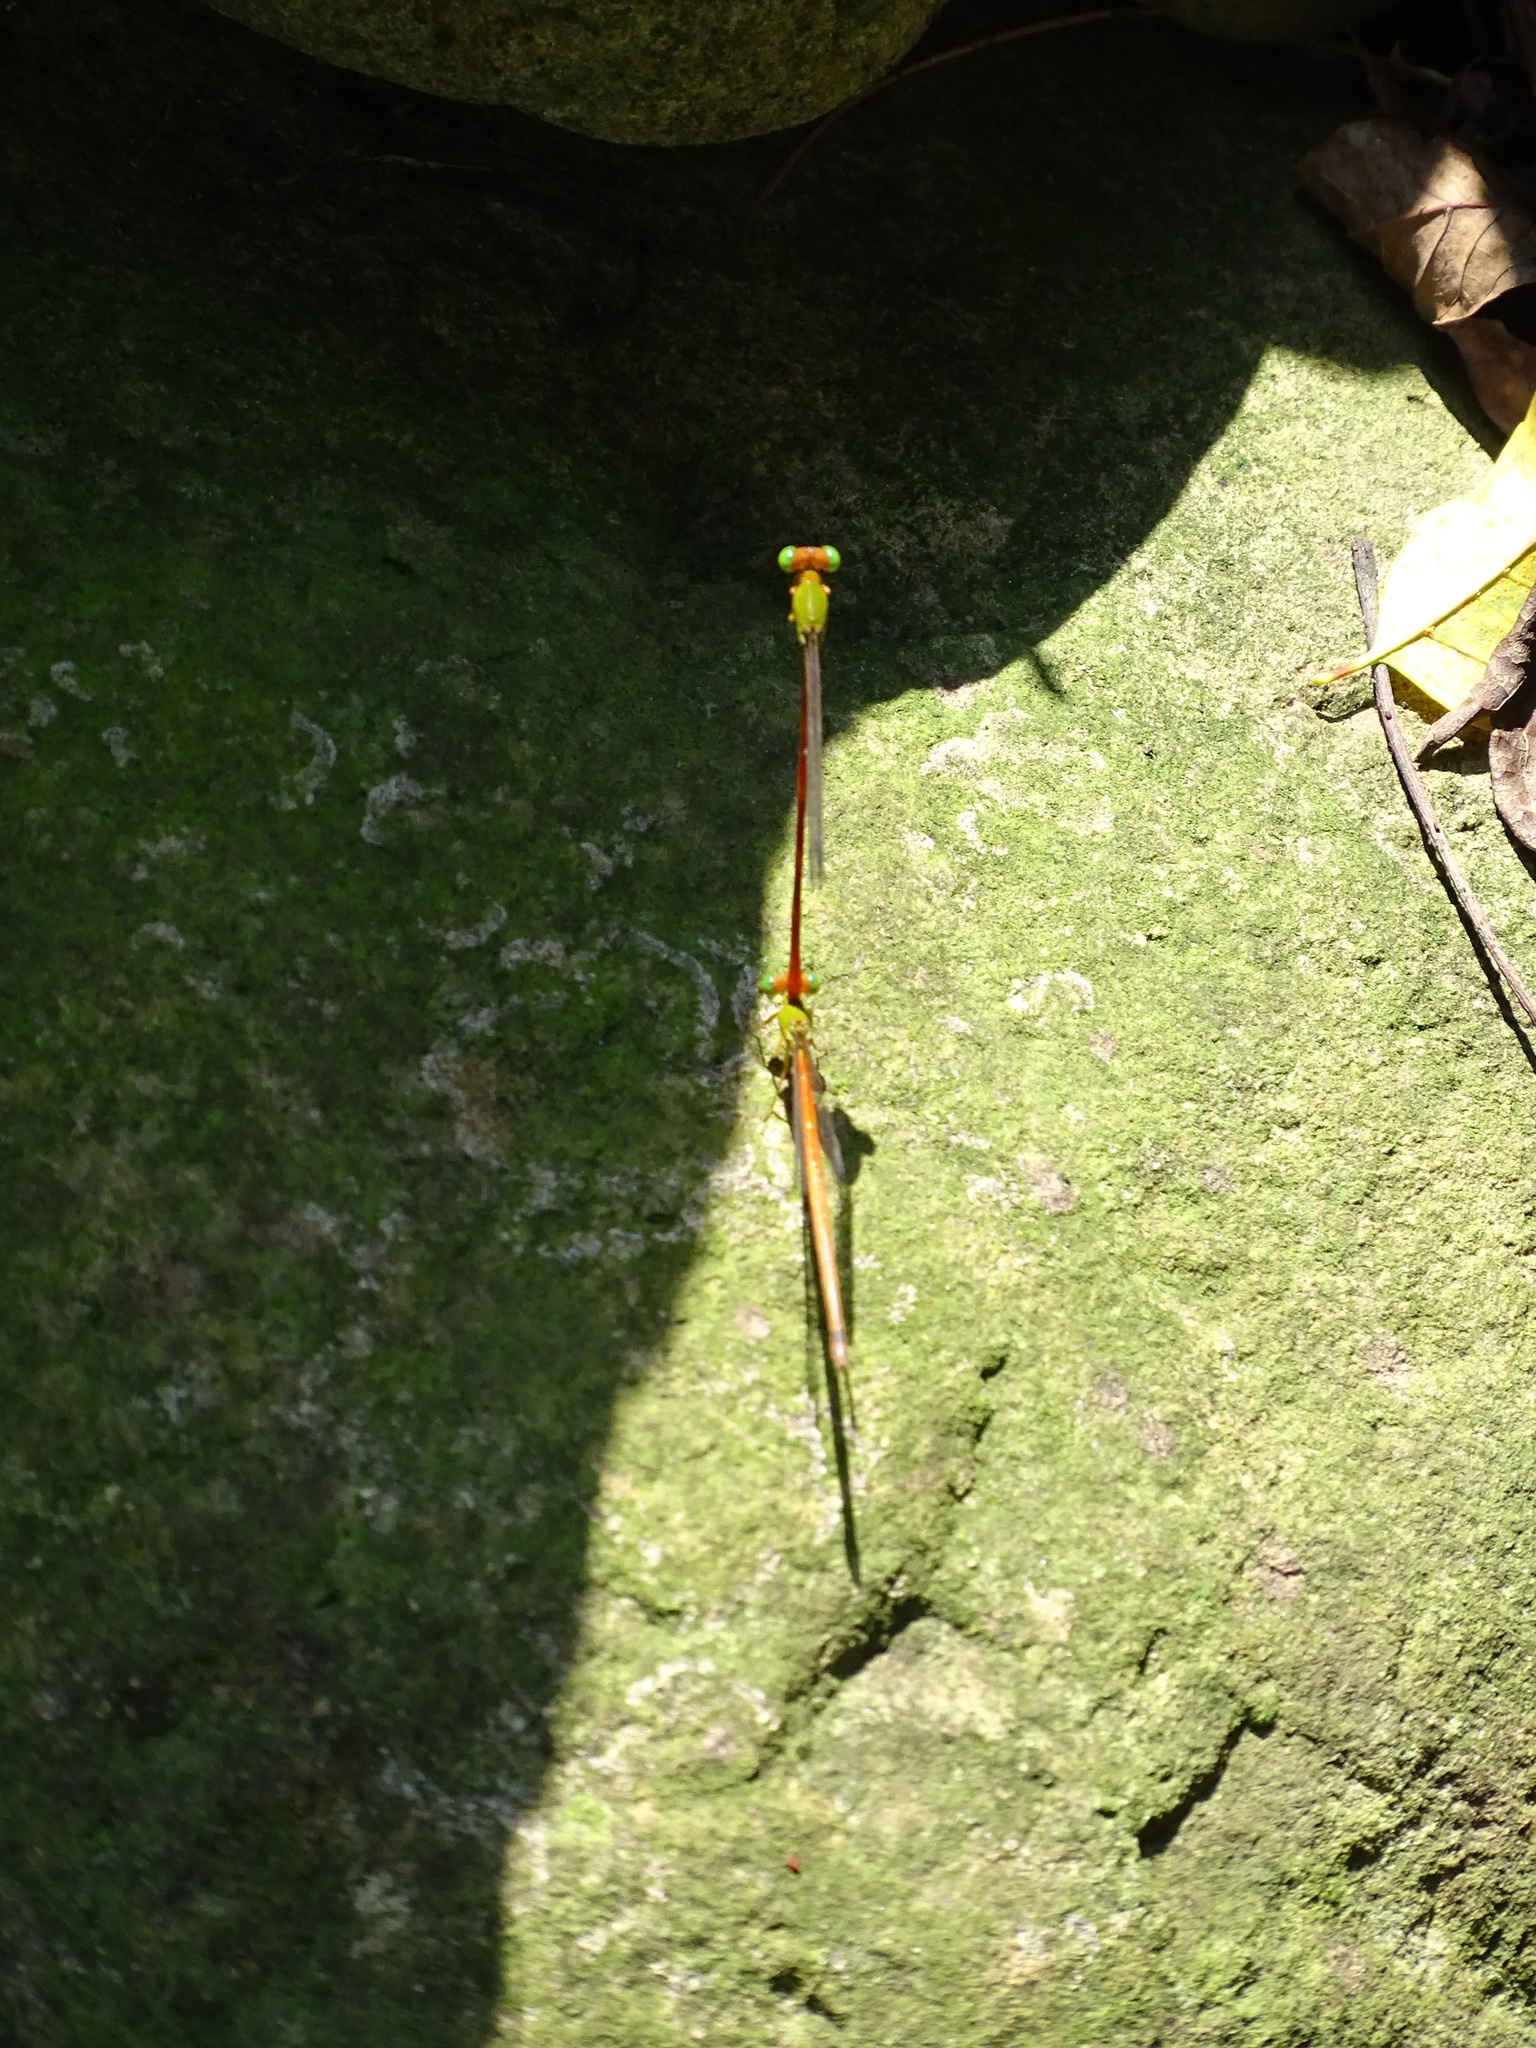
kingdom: Animalia
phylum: Arthropoda
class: Insecta
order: Odonata
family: Coenagrionidae
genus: Ceriagrion
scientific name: Ceriagrion auranticum
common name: Orange-tailed sprite
